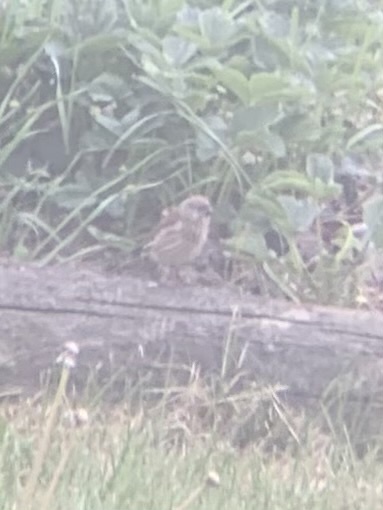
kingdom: Animalia
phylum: Chordata
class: Aves
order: Passeriformes
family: Fringillidae
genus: Linaria
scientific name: Linaria cannabina
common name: Common linnet
